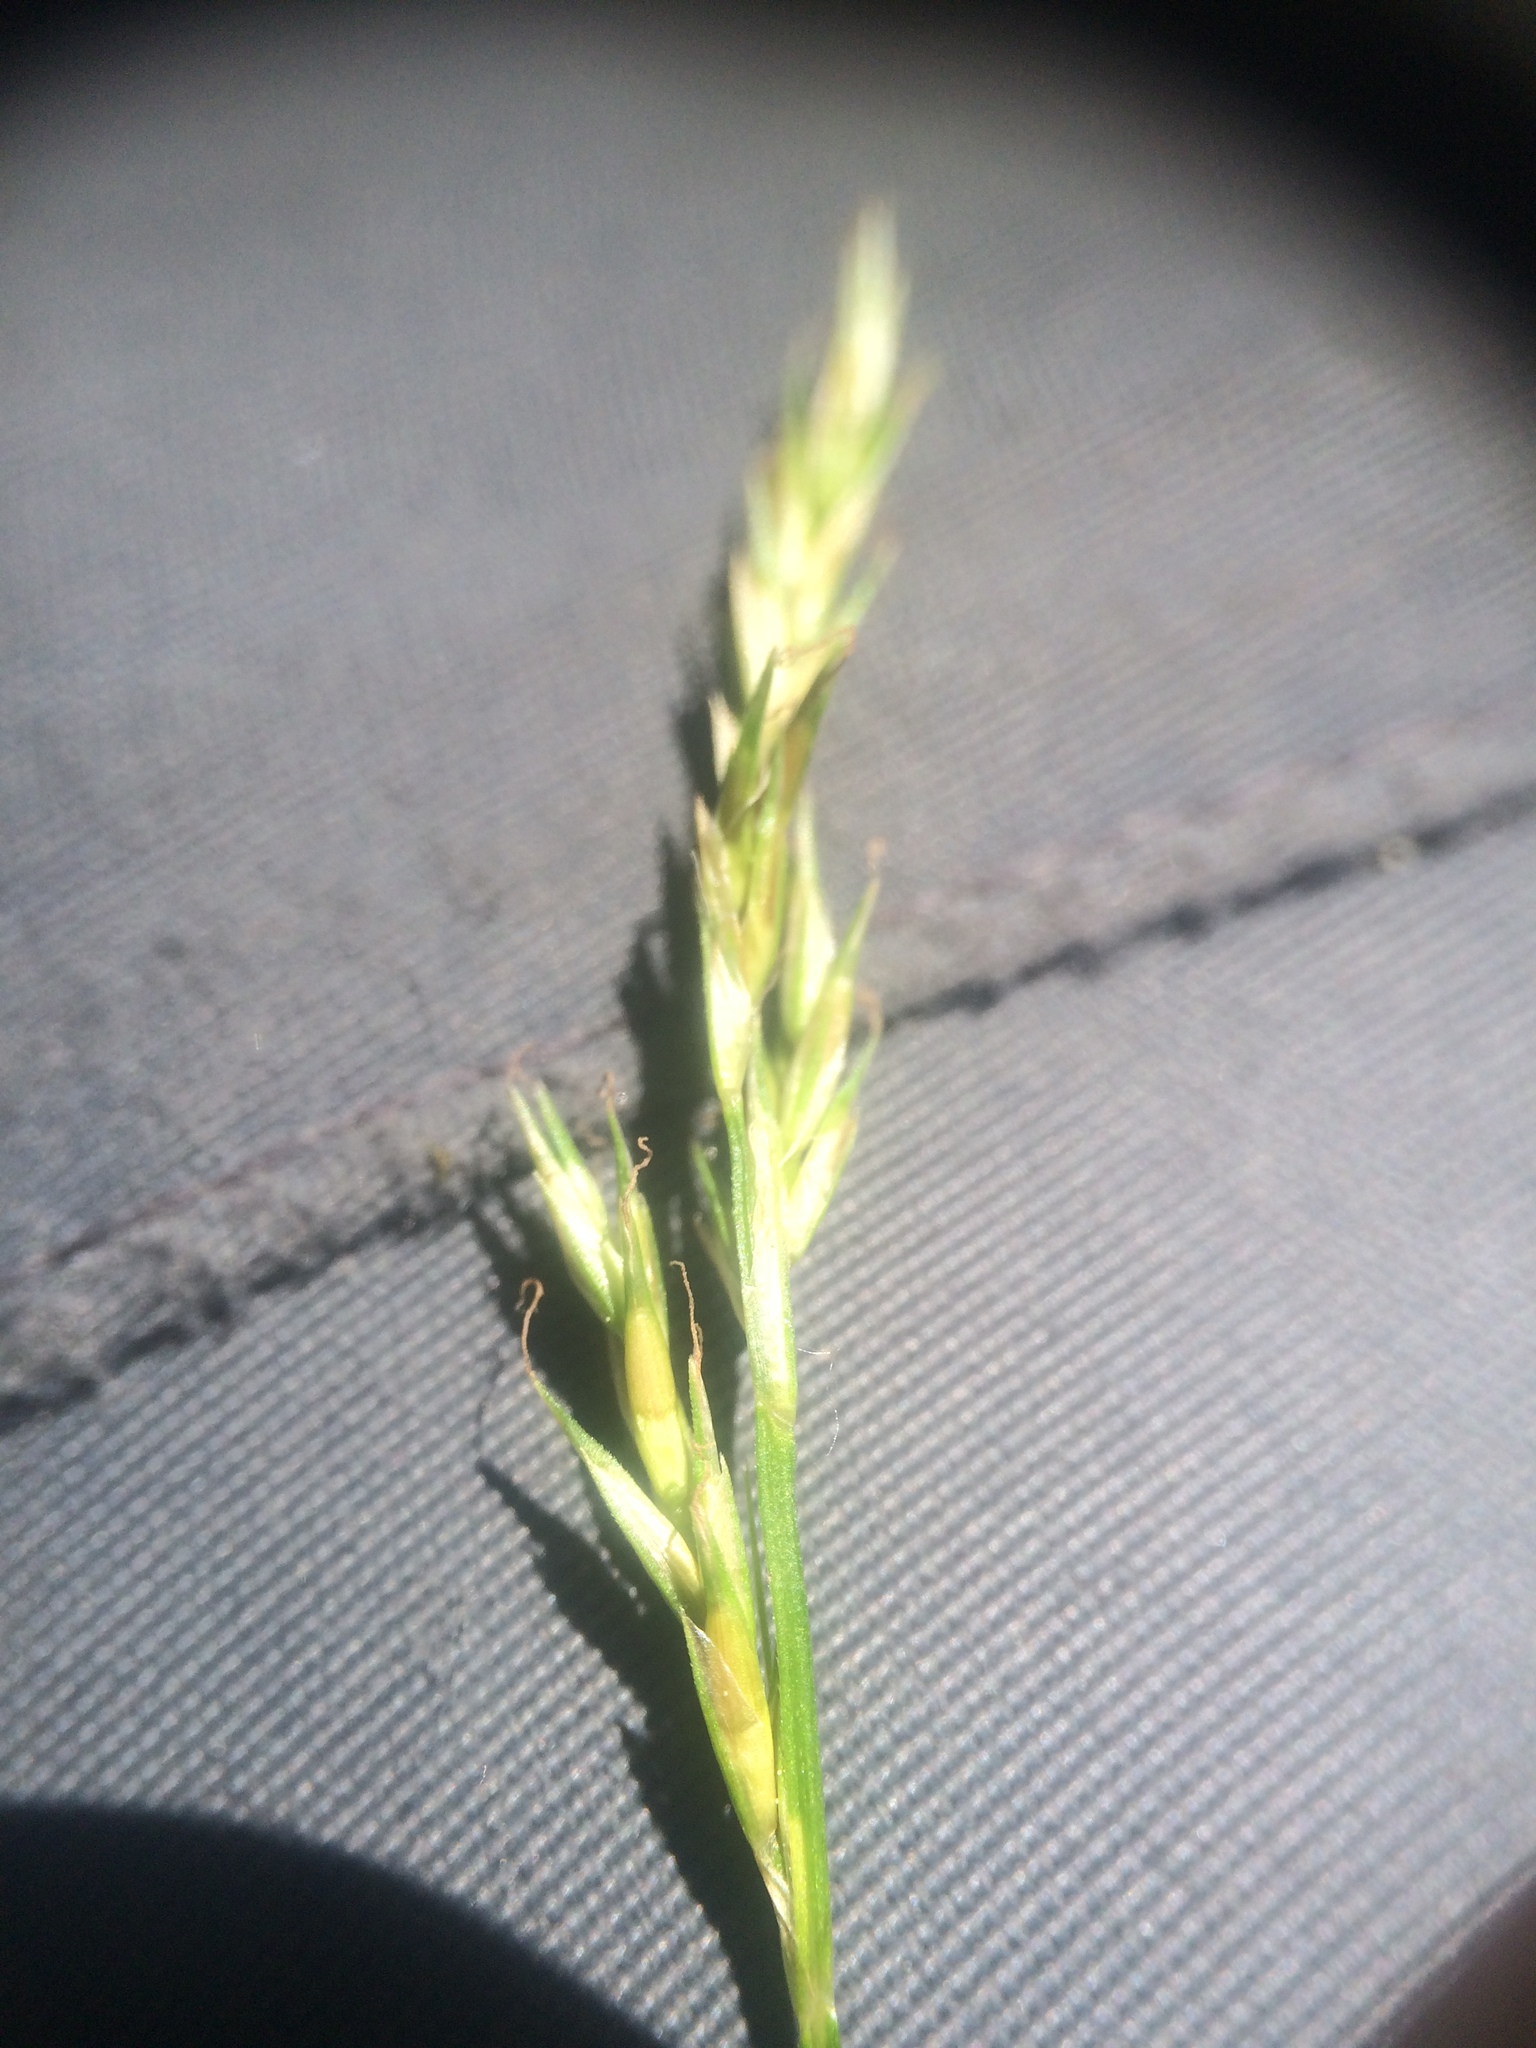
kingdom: Plantae
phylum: Tracheophyta
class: Liliopsida
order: Poales
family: Cyperaceae
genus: Carex
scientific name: Carex bromoides
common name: Brome hummock sedge
